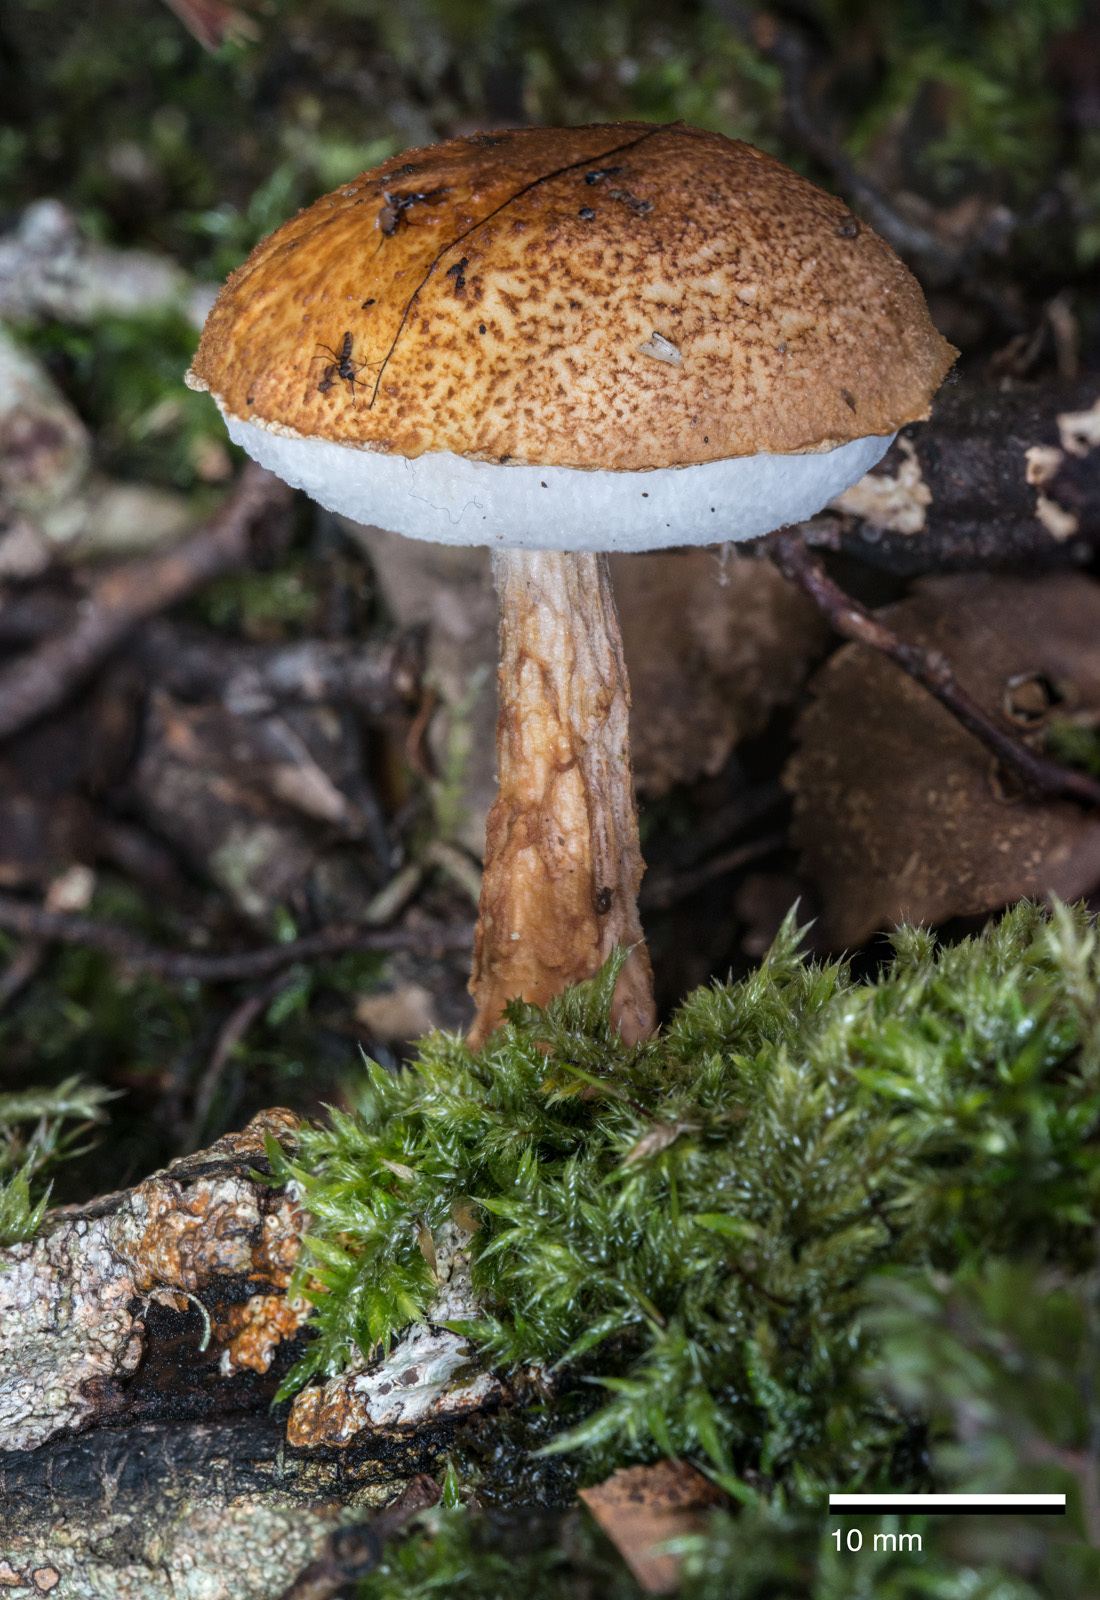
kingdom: Fungi
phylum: Basidiomycota
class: Agaricomycetes
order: Boletales
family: Boletaceae
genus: Austroboletus
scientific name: Austroboletus lacunosus
